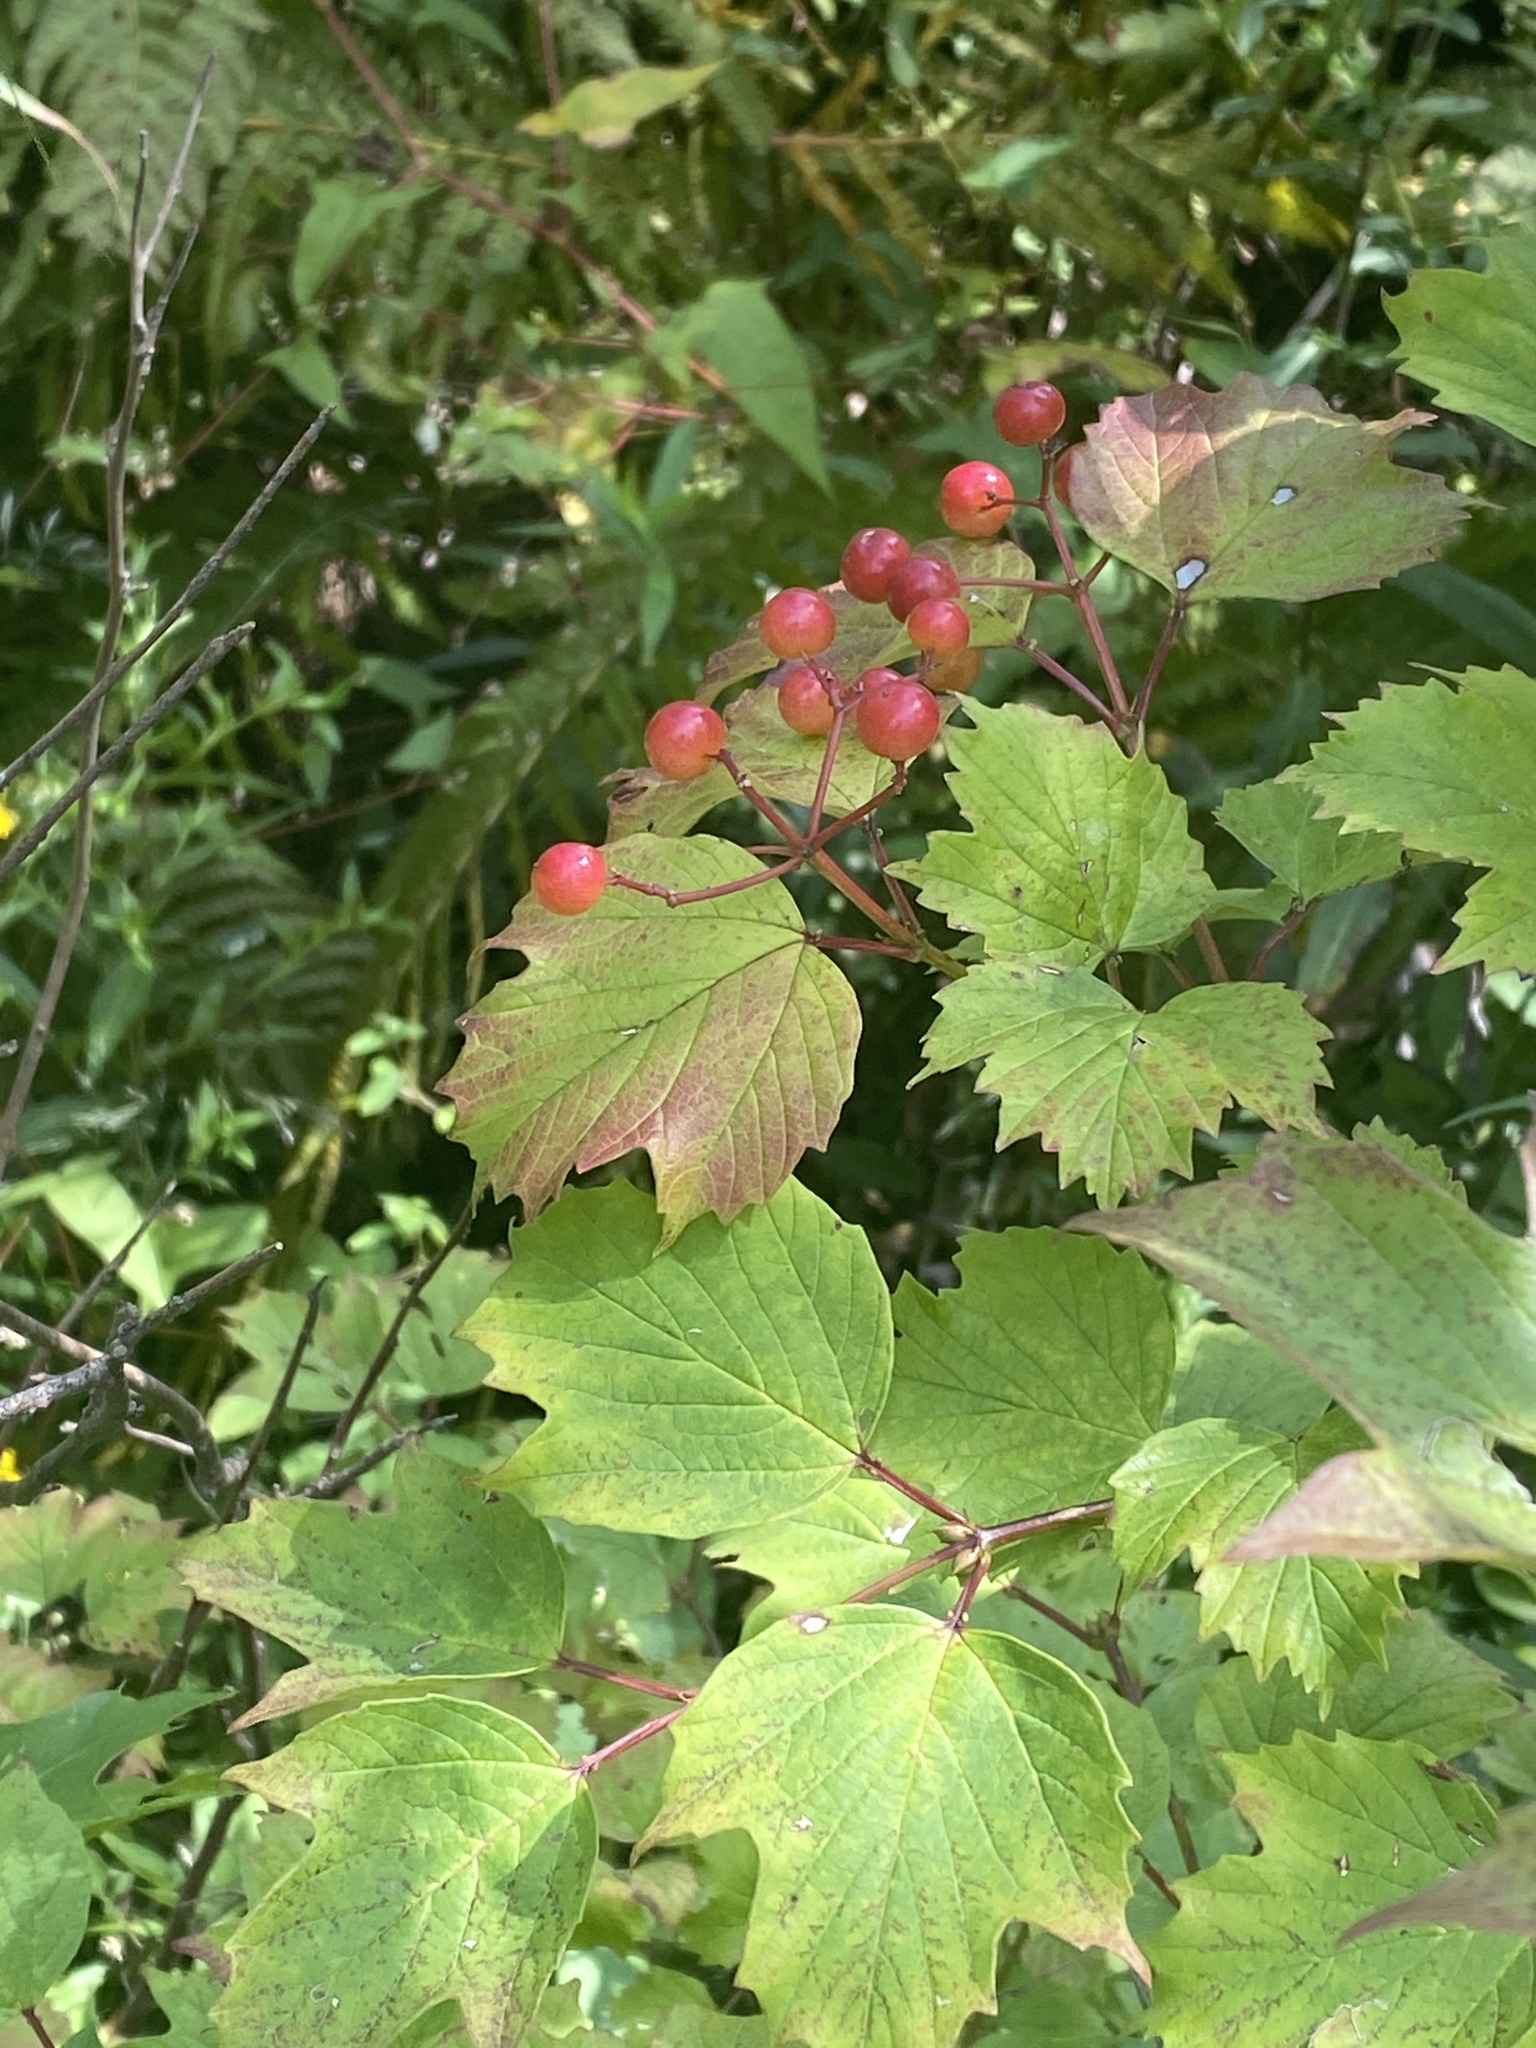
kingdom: Plantae
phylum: Tracheophyta
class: Magnoliopsida
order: Dipsacales
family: Viburnaceae
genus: Viburnum
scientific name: Viburnum opulus
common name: Guelder-rose
